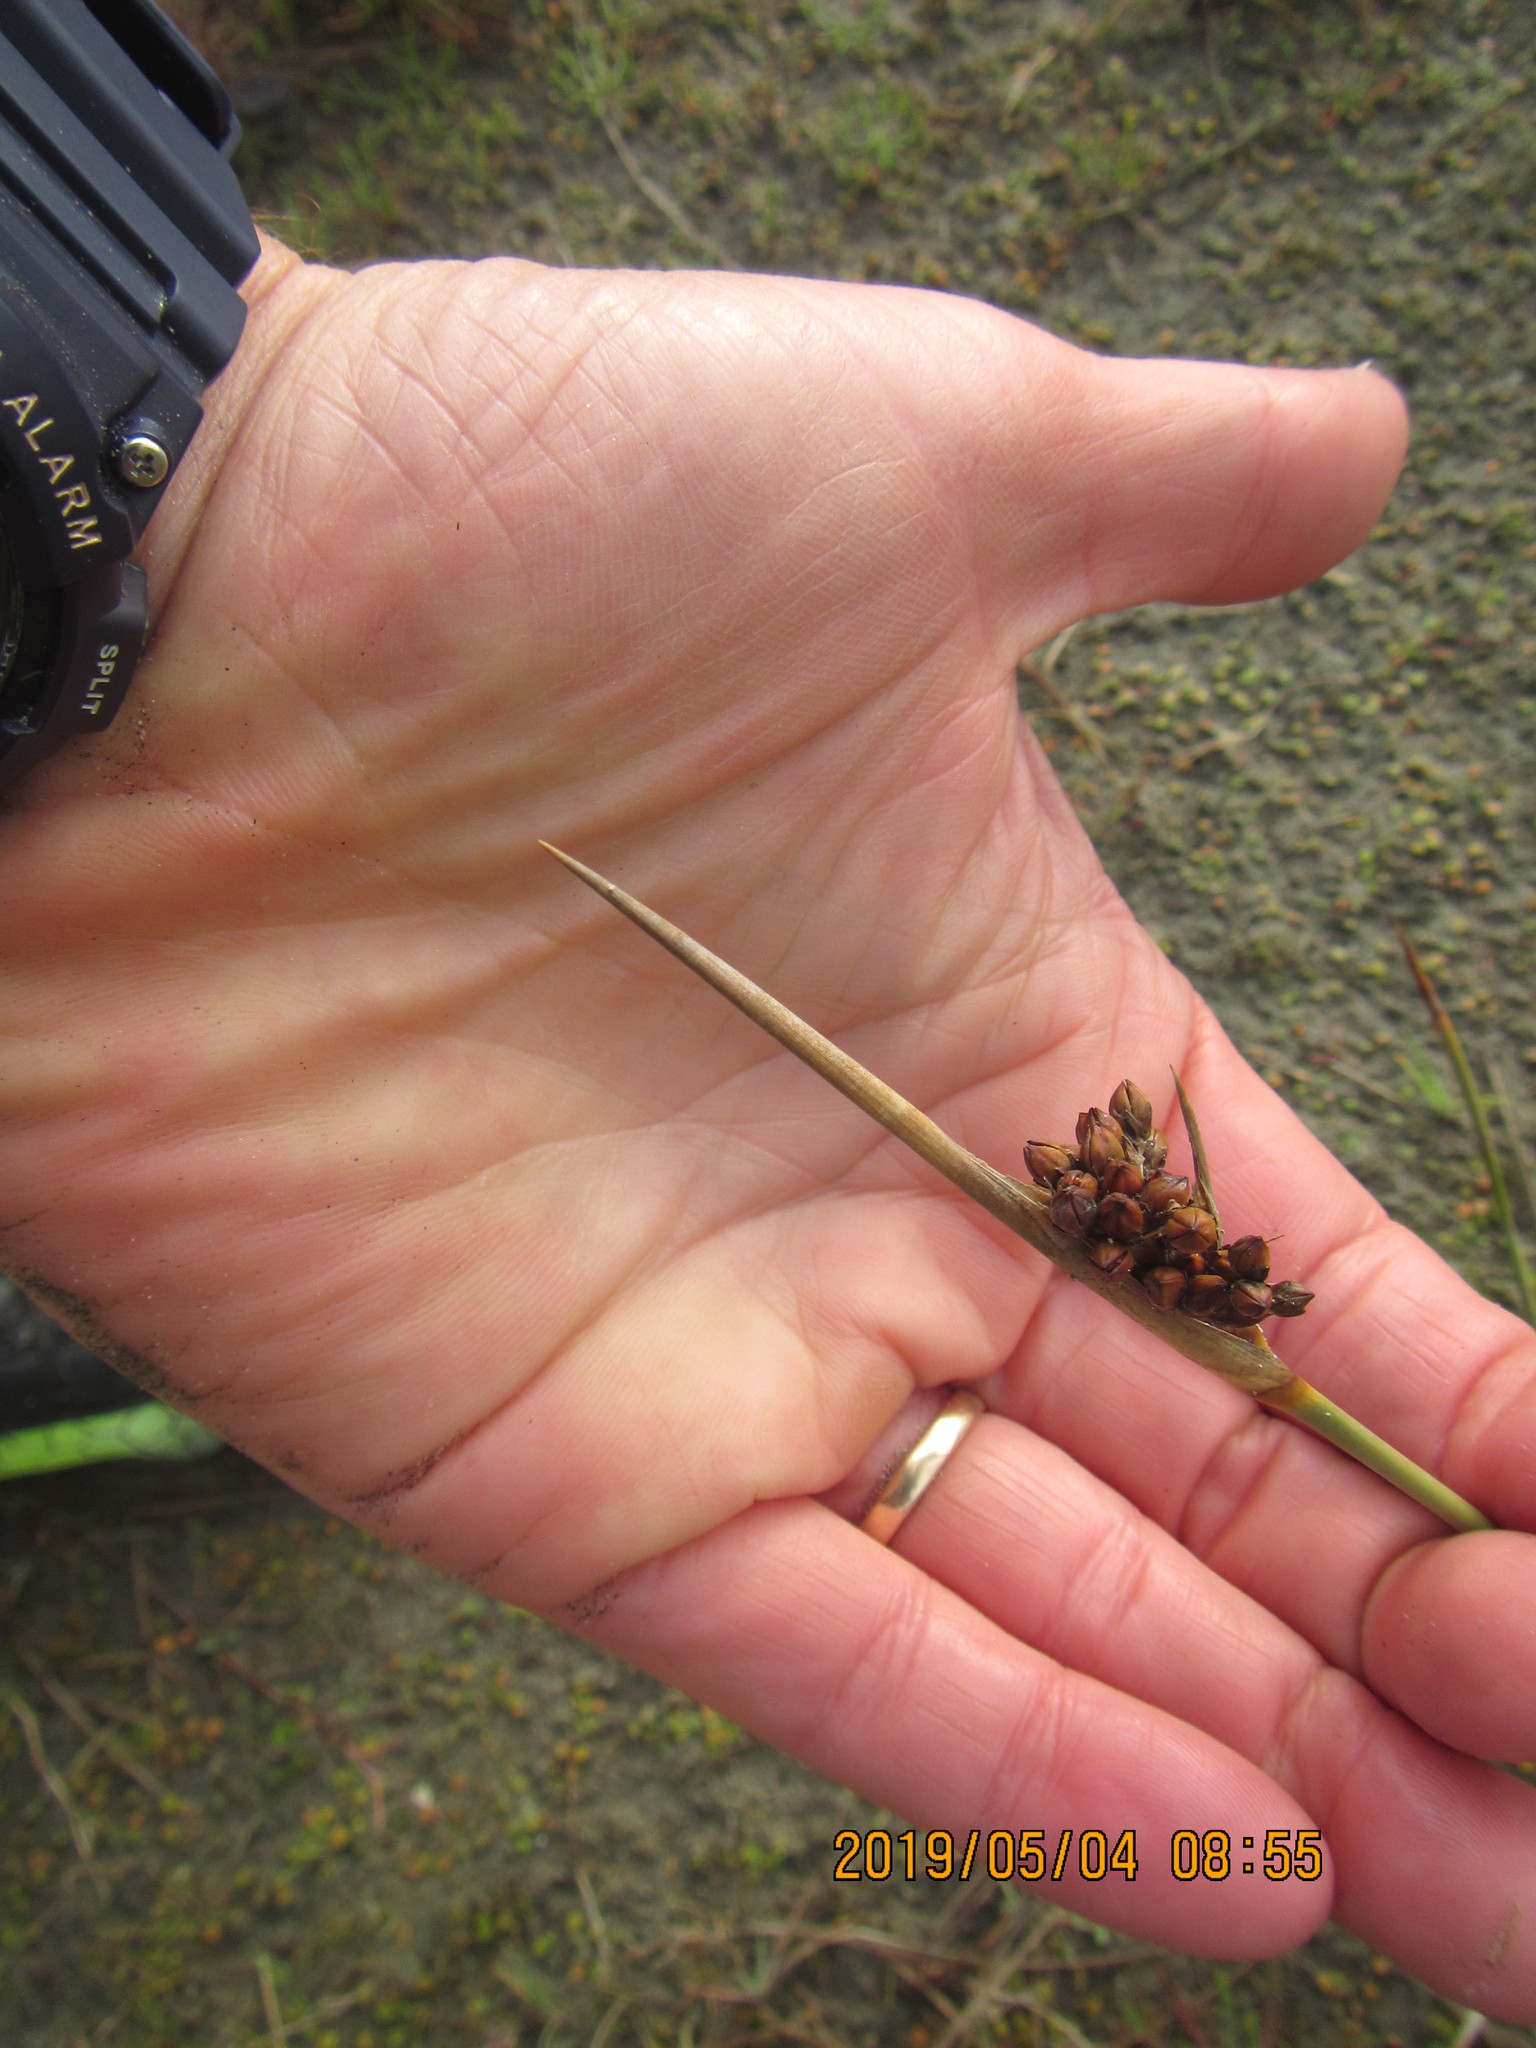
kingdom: Plantae
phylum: Tracheophyta
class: Liliopsida
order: Poales
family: Juncaceae
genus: Juncus
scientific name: Juncus acutus
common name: Sharp rush
